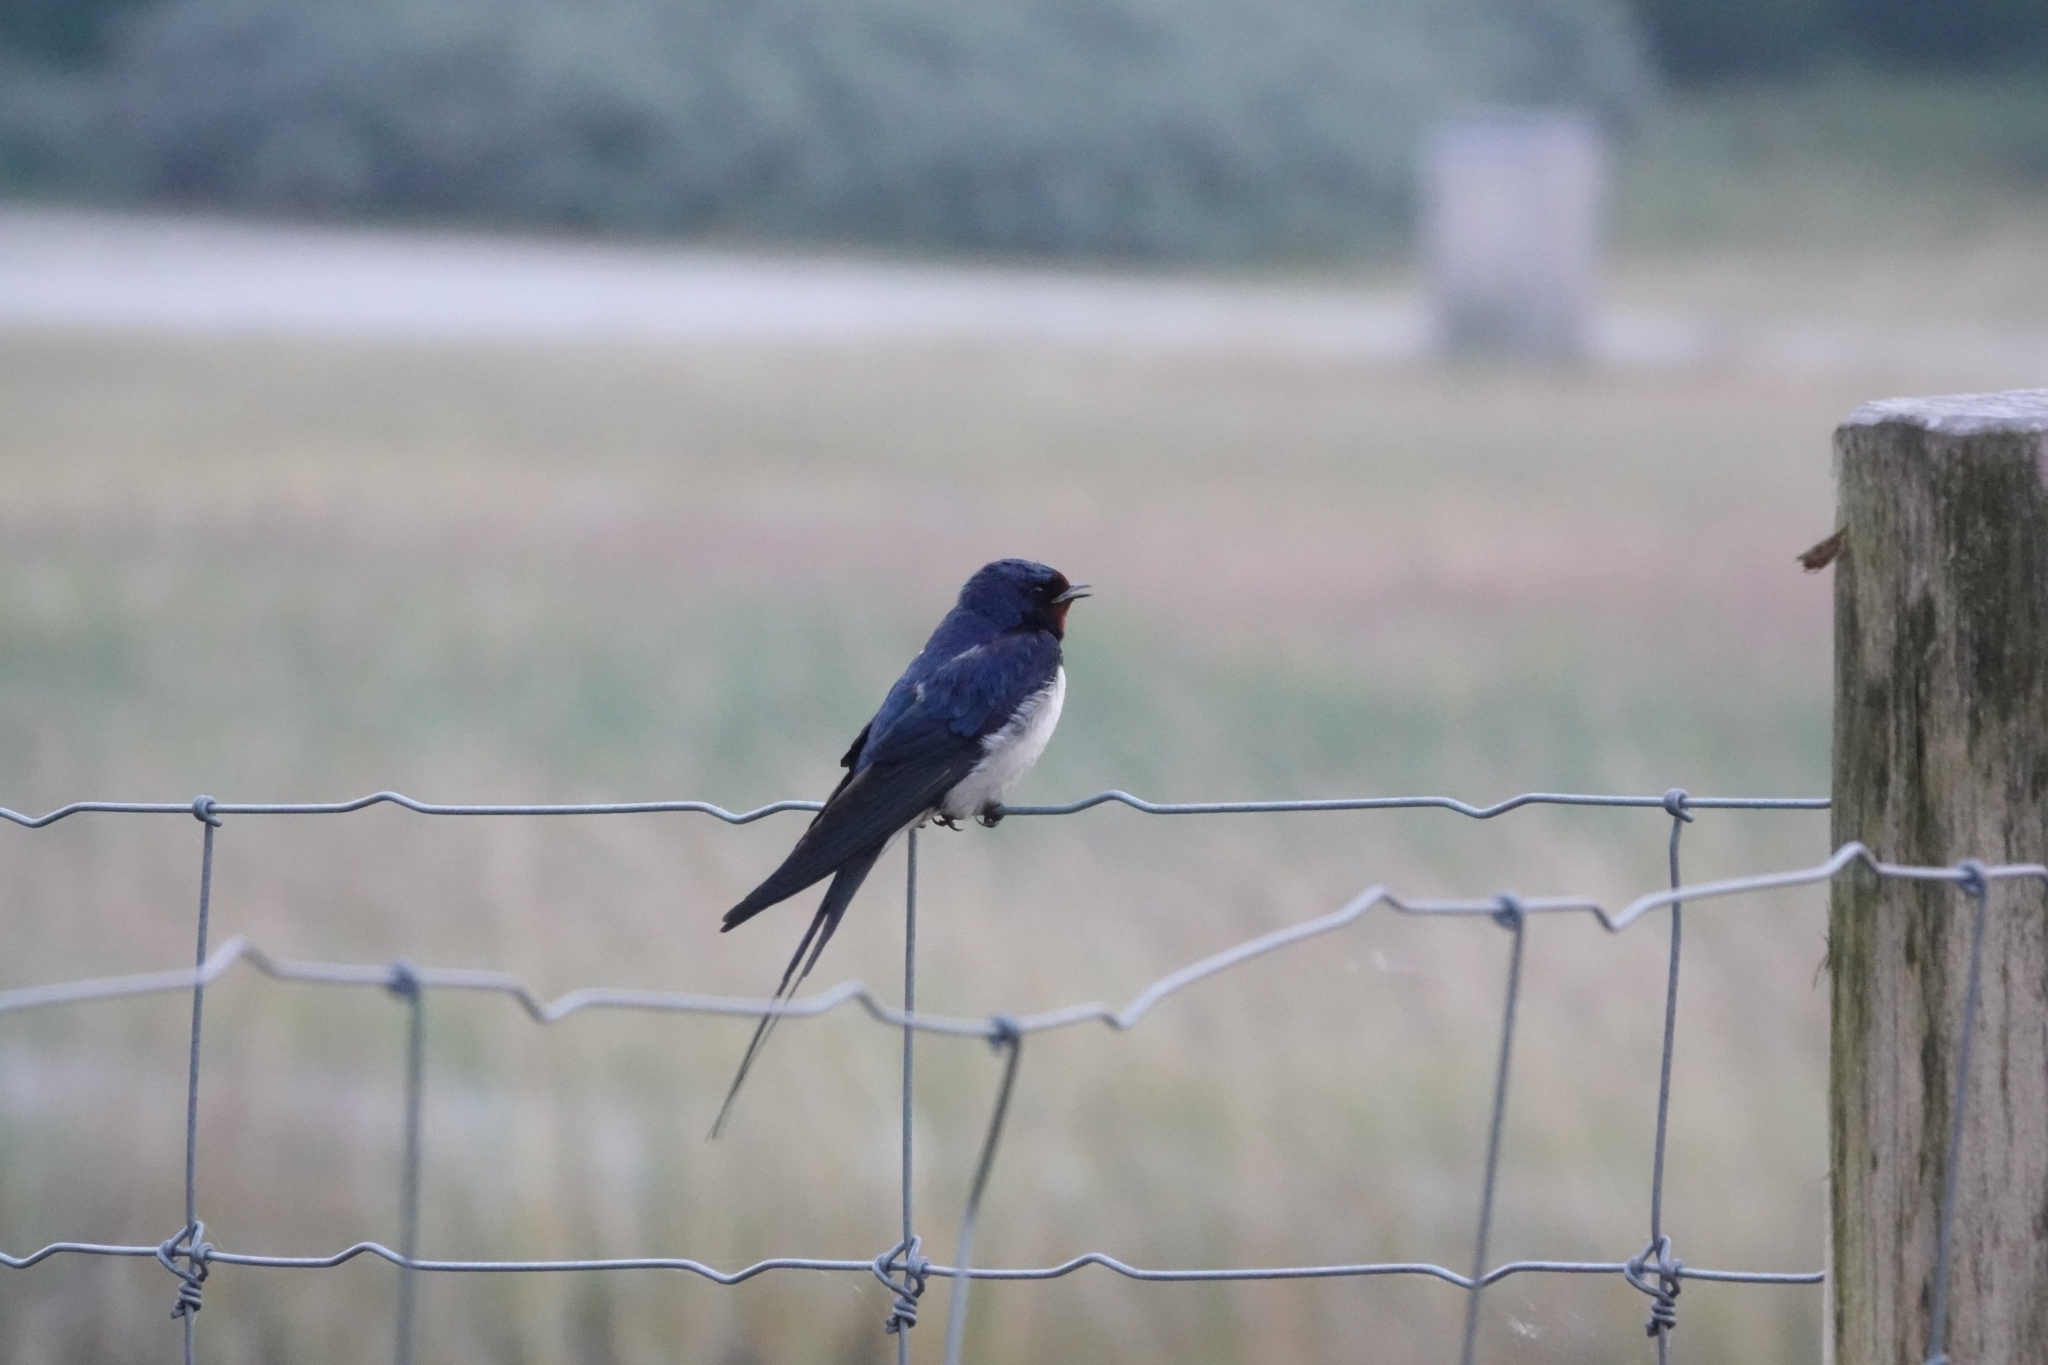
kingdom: Animalia
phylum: Chordata
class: Aves
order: Passeriformes
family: Hirundinidae
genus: Hirundo
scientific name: Hirundo rustica
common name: Barn swallow
